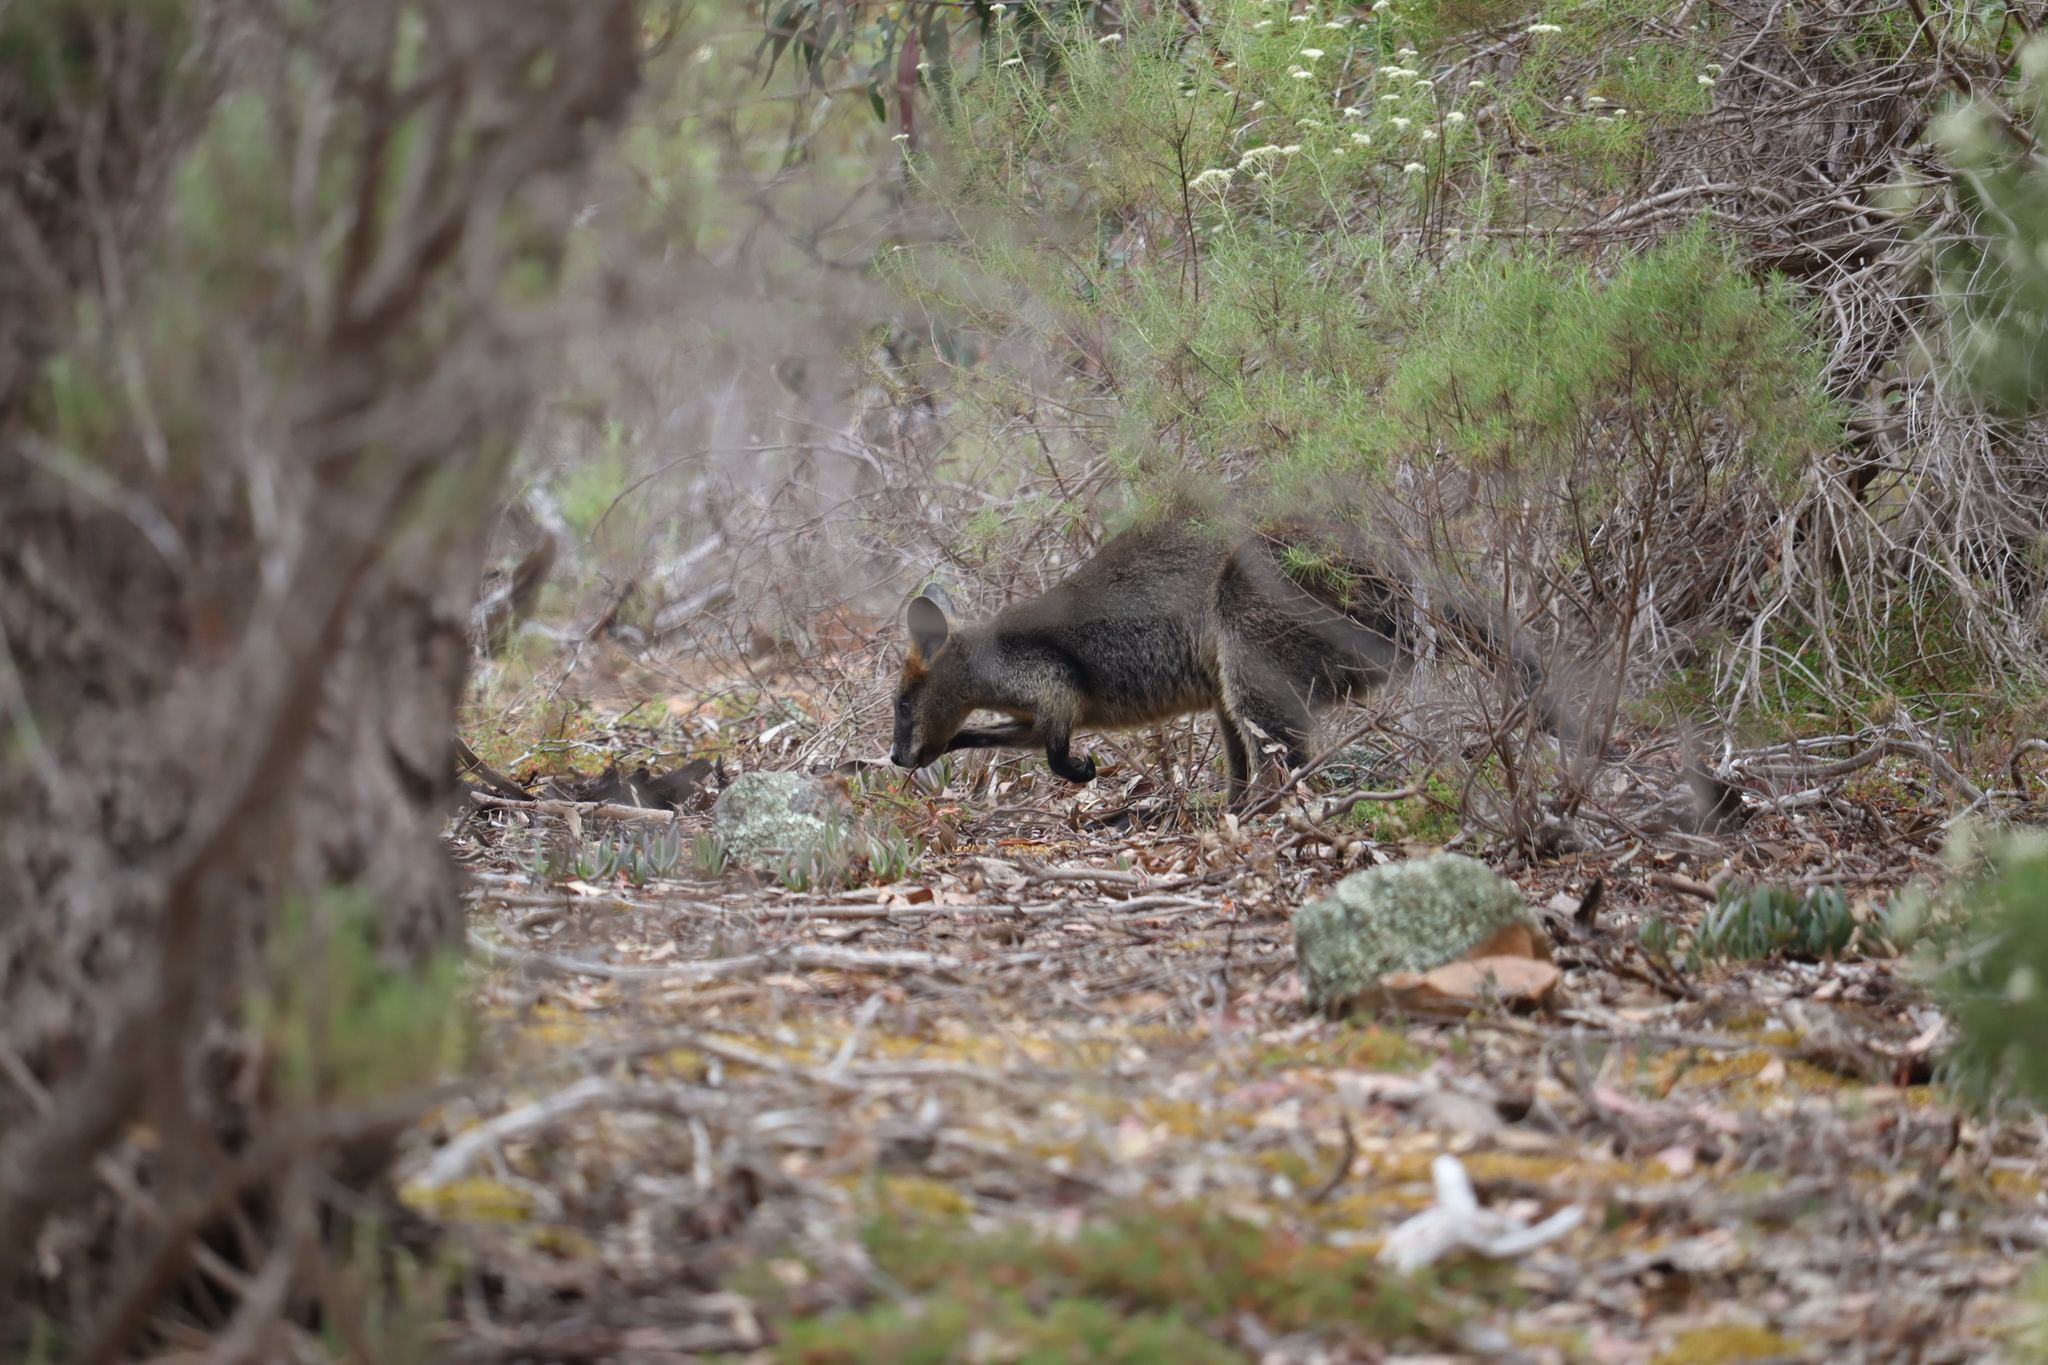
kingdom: Animalia
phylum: Chordata
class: Mammalia
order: Diprotodontia
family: Macropodidae
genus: Wallabia
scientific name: Wallabia bicolor
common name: Swamp wallaby
